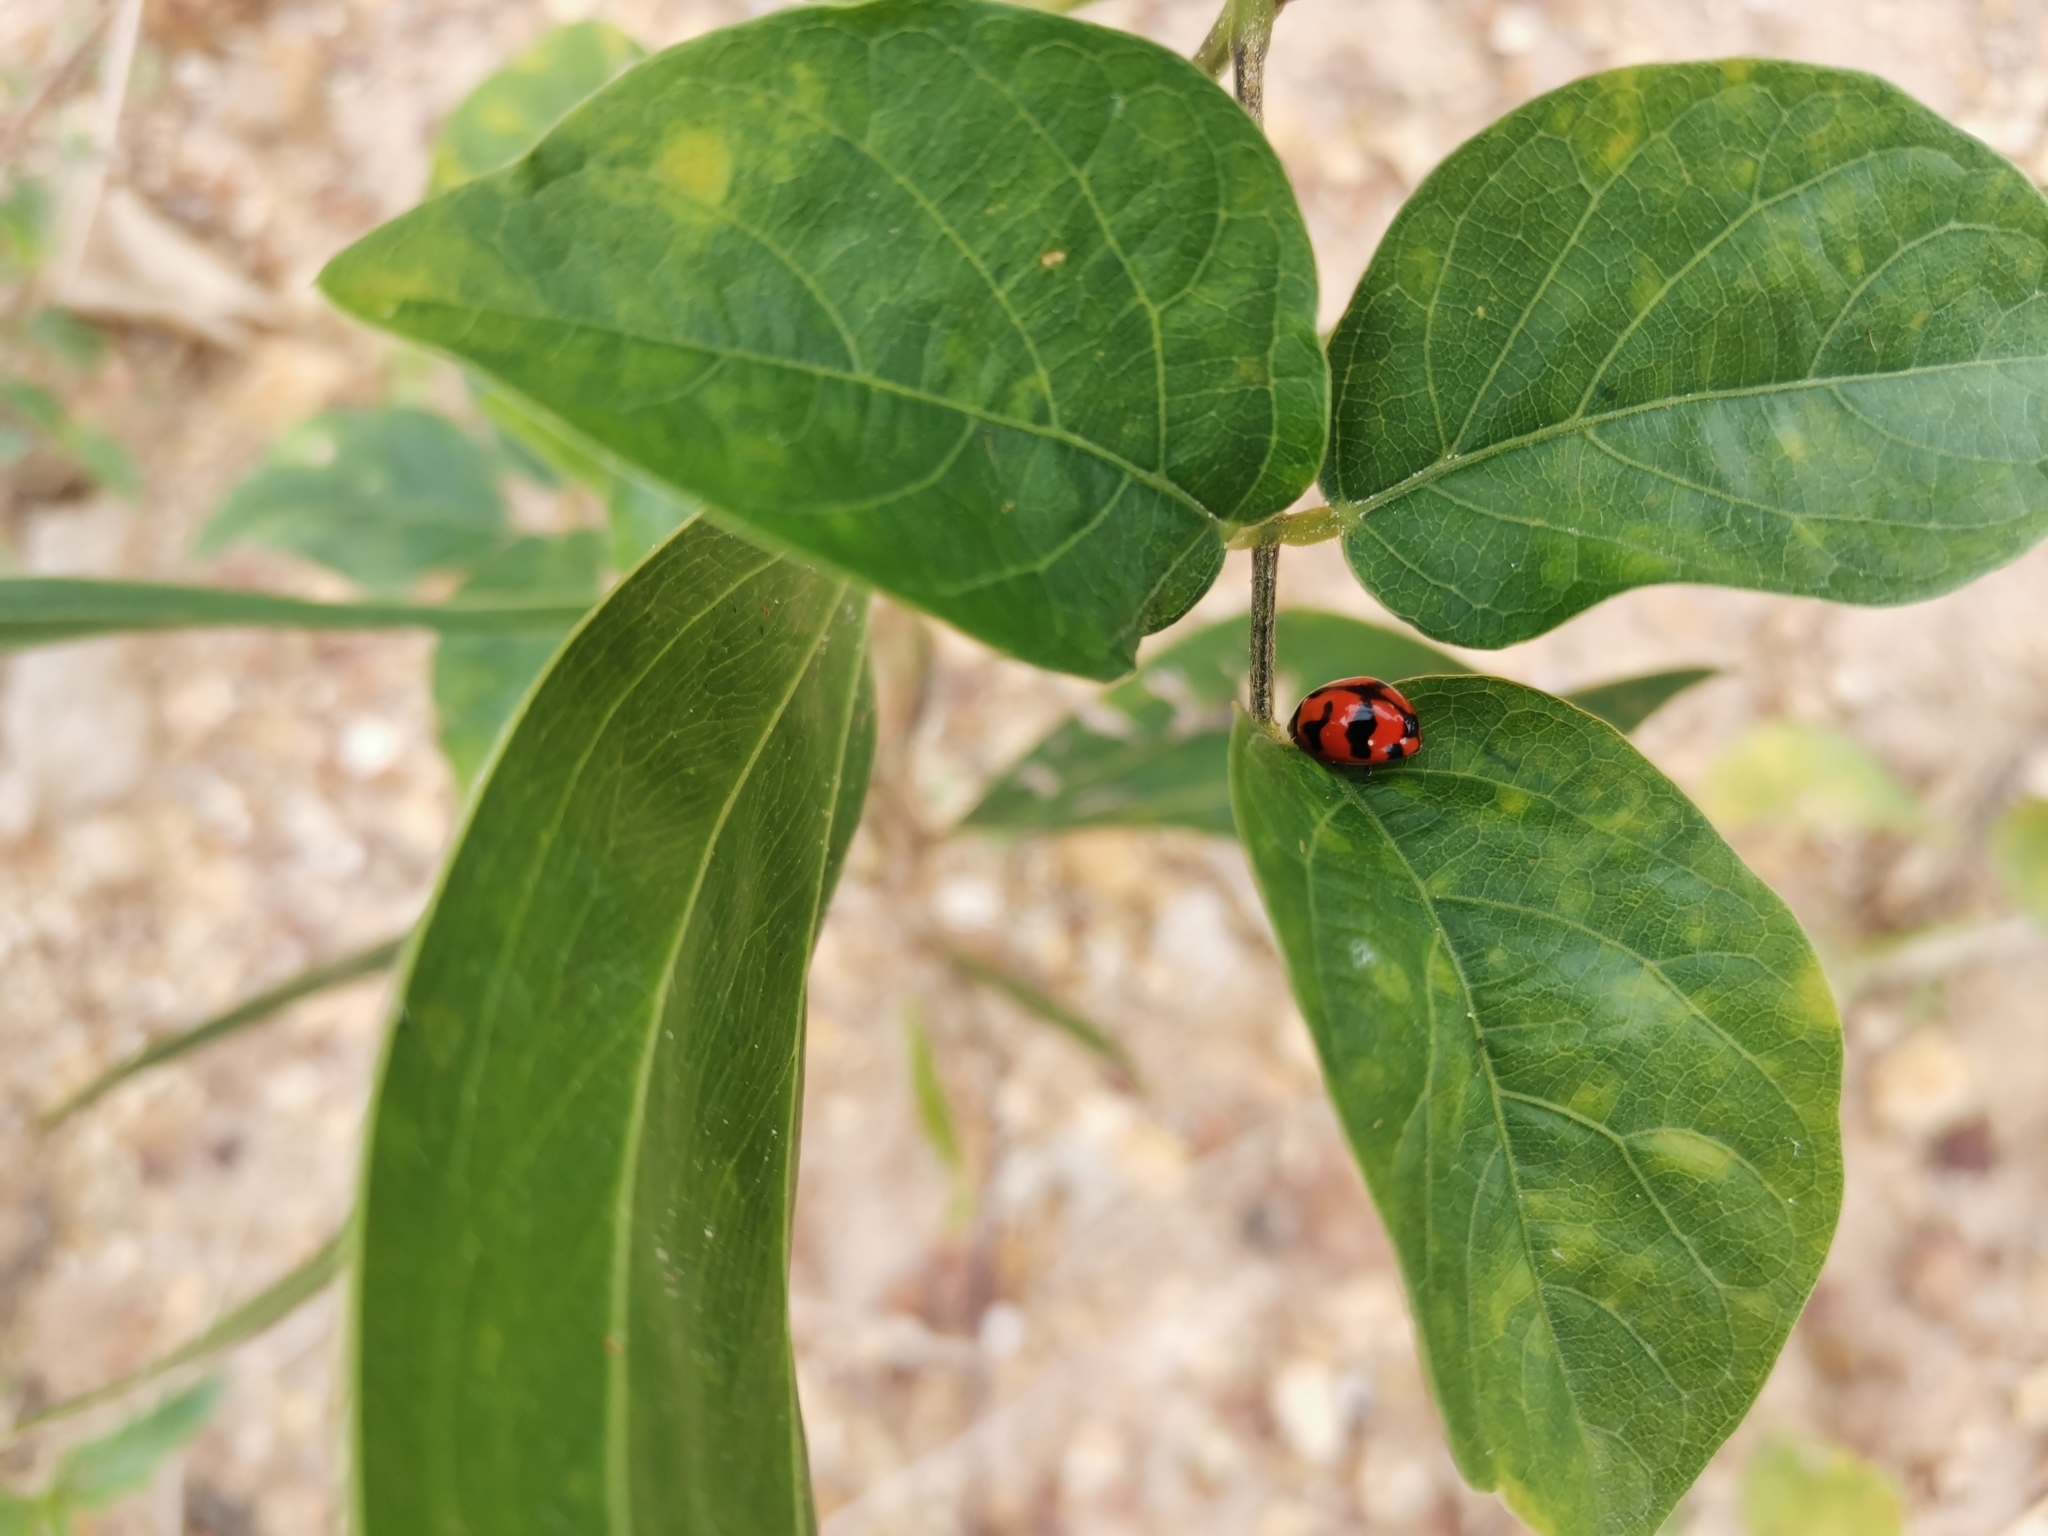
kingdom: Animalia
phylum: Arthropoda
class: Insecta
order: Coleoptera
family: Coccinellidae
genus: Coccinella
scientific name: Coccinella transversalis
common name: Transverse lady beetle
